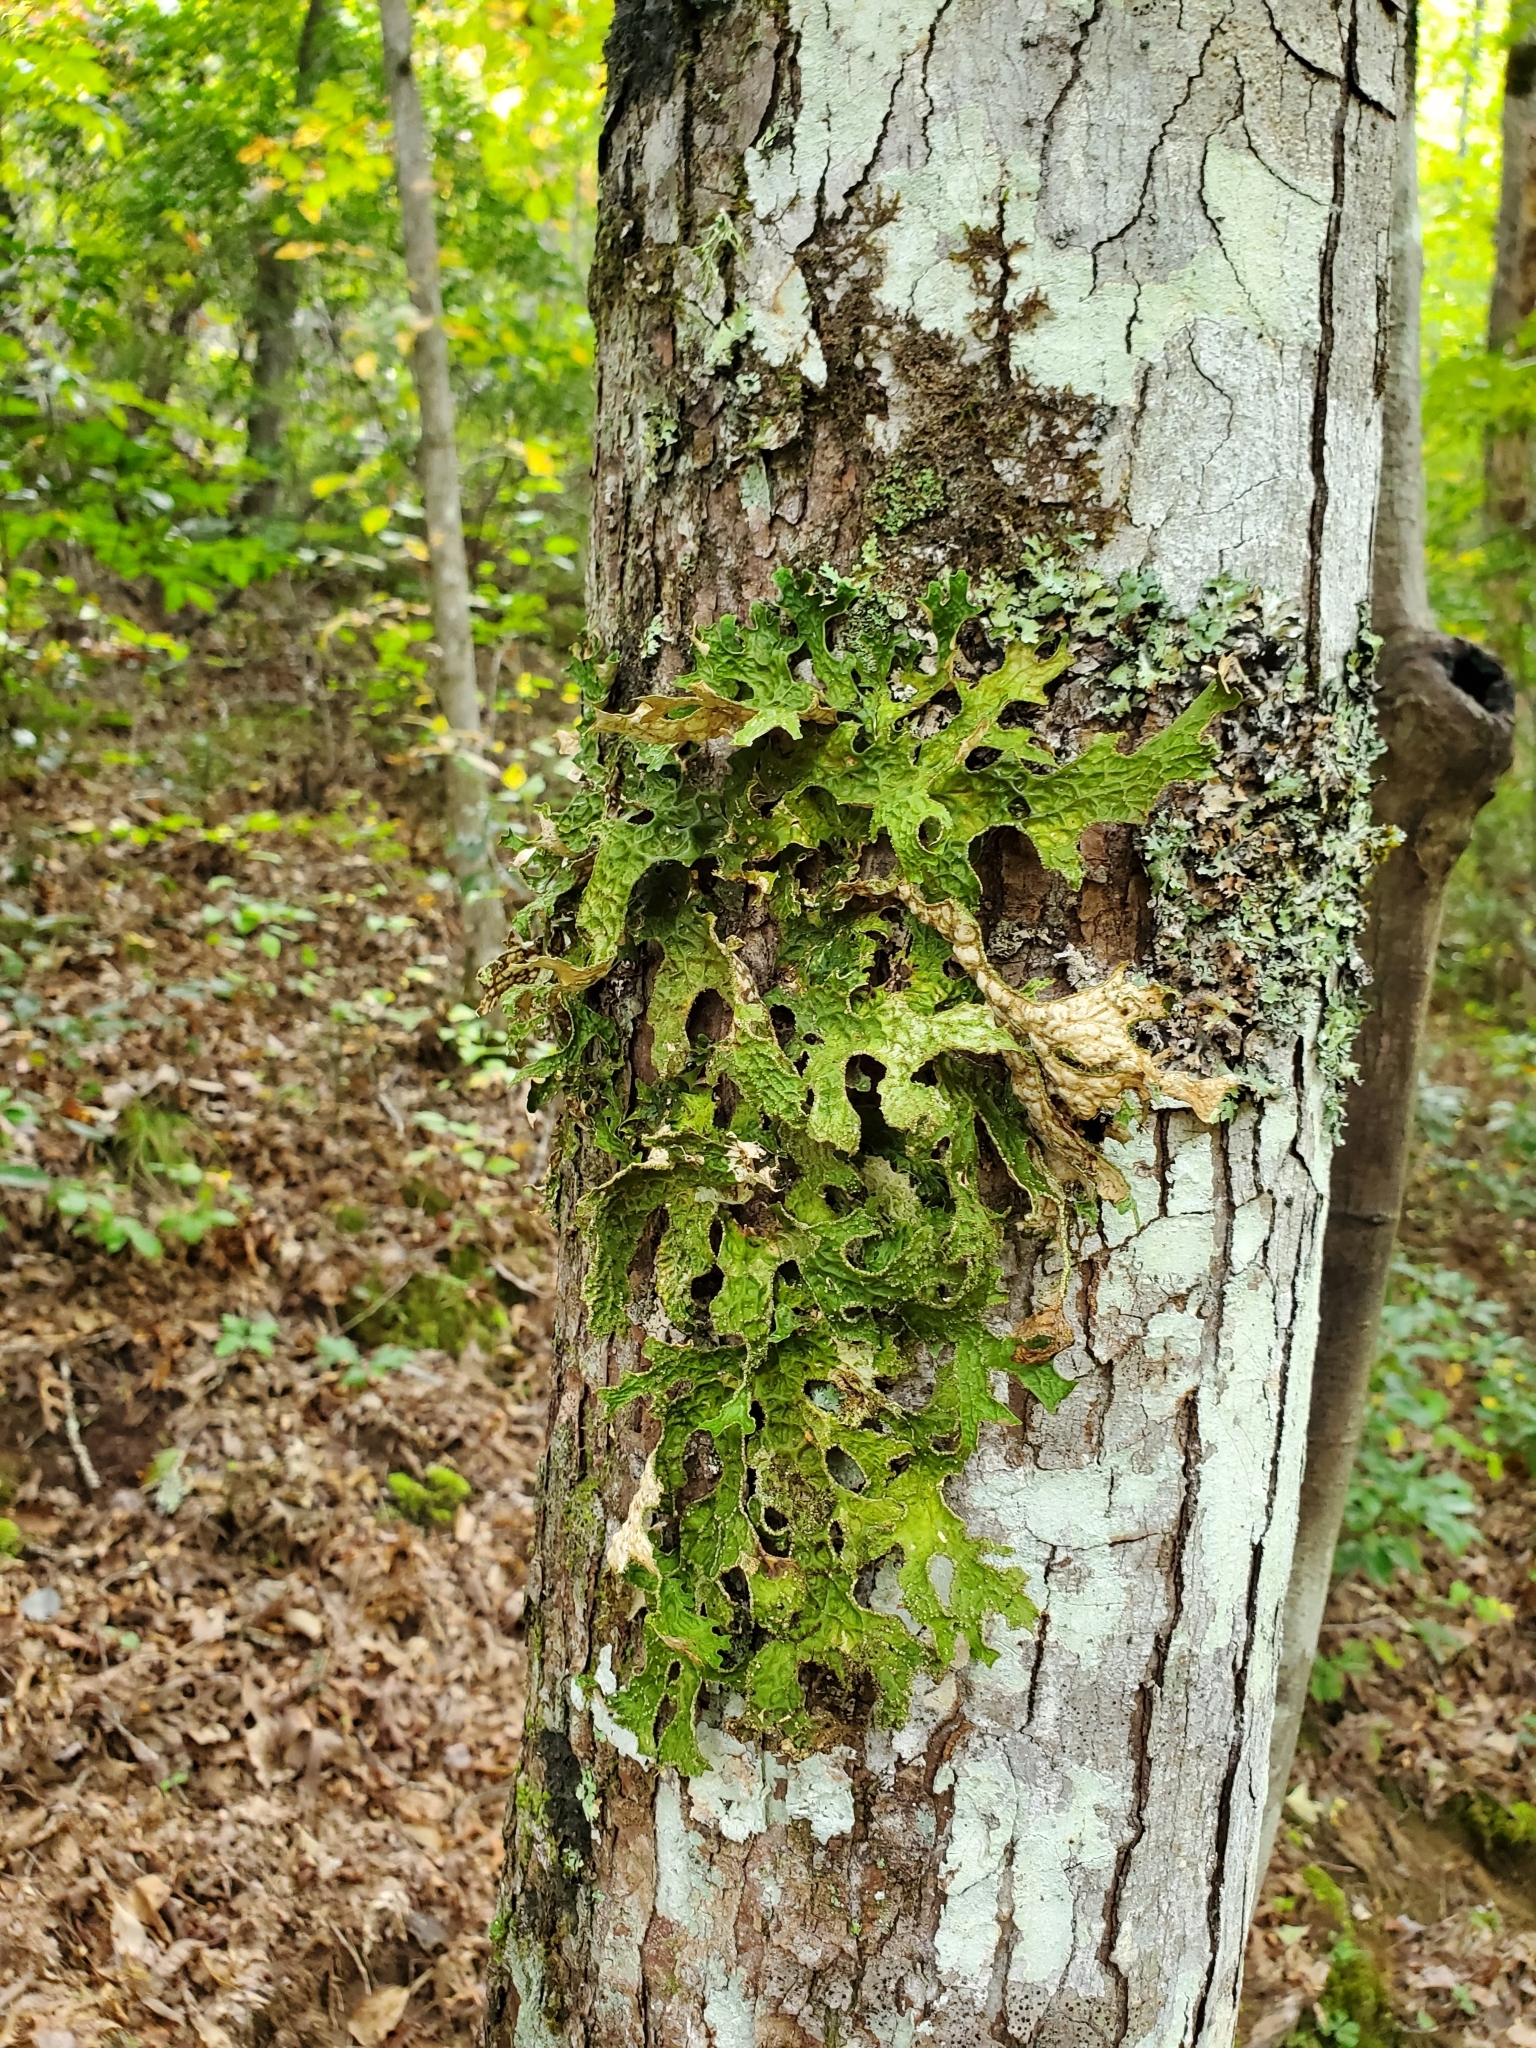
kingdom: Fungi
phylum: Ascomycota
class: Lecanoromycetes
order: Peltigerales
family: Lobariaceae
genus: Lobaria
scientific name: Lobaria pulmonaria
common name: Lungwort
